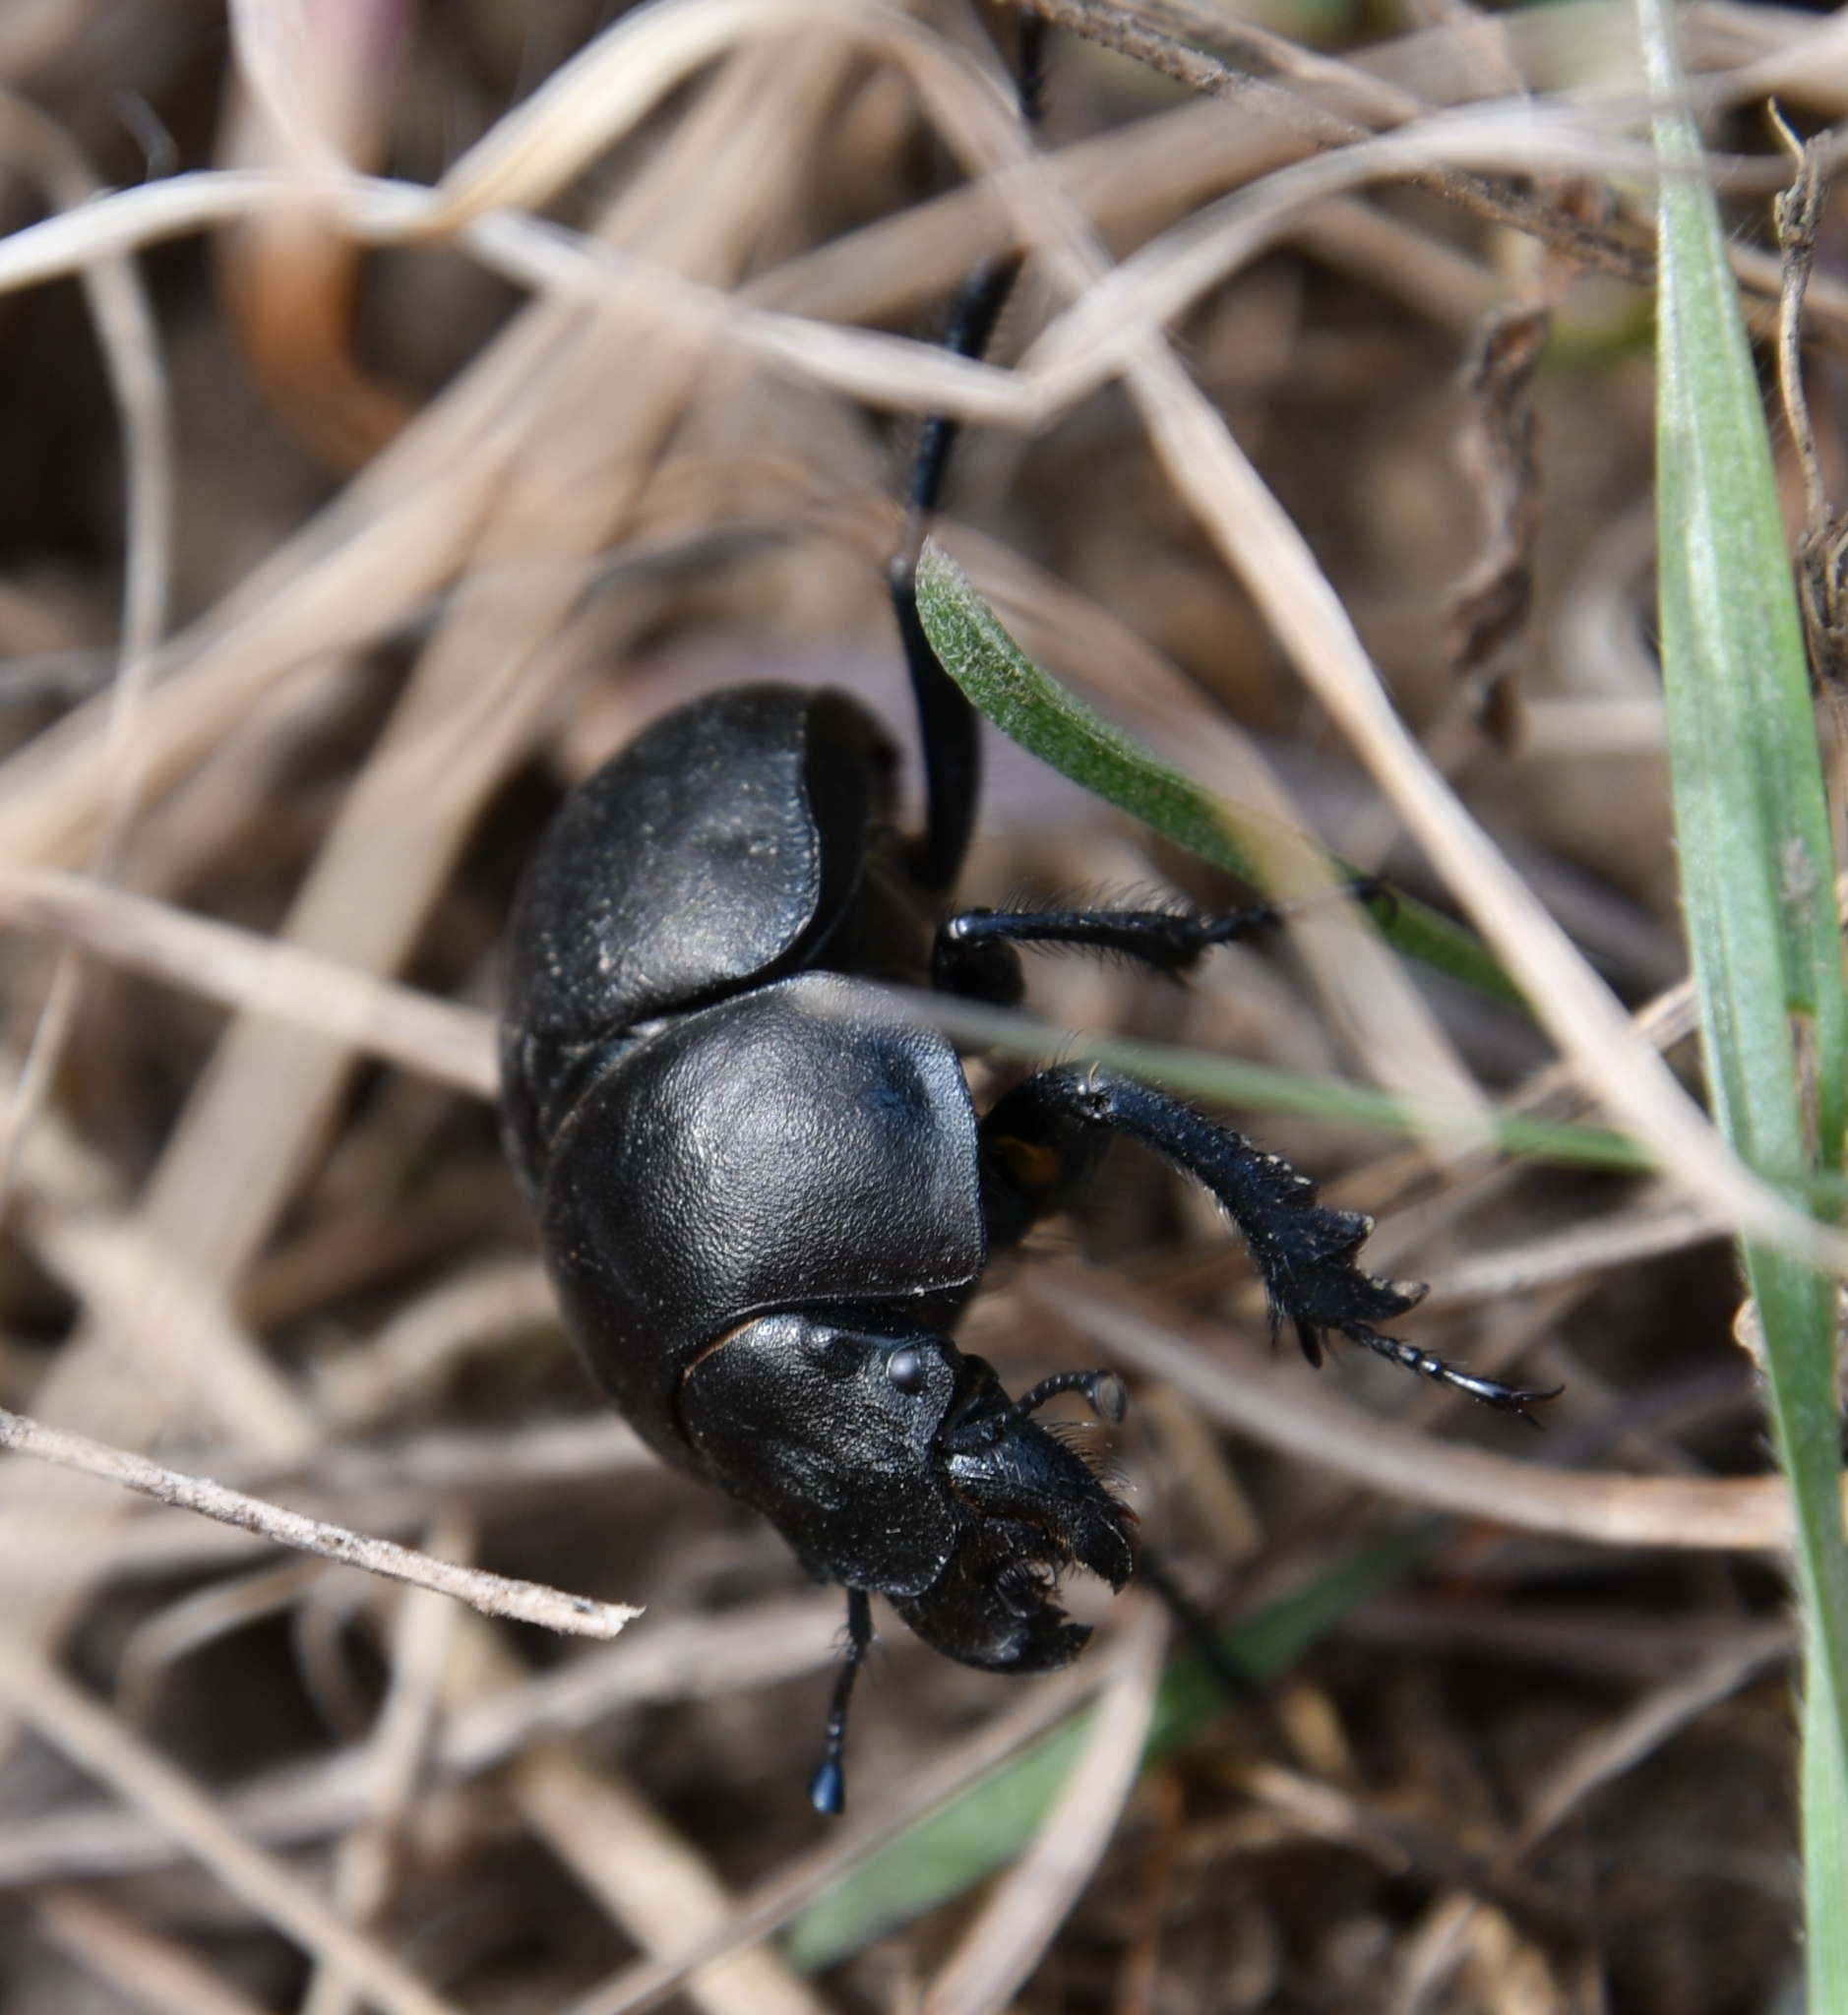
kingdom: Animalia
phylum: Arthropoda
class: Insecta
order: Coleoptera
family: Geotrupidae
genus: Lethrus
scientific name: Lethrus apterus
